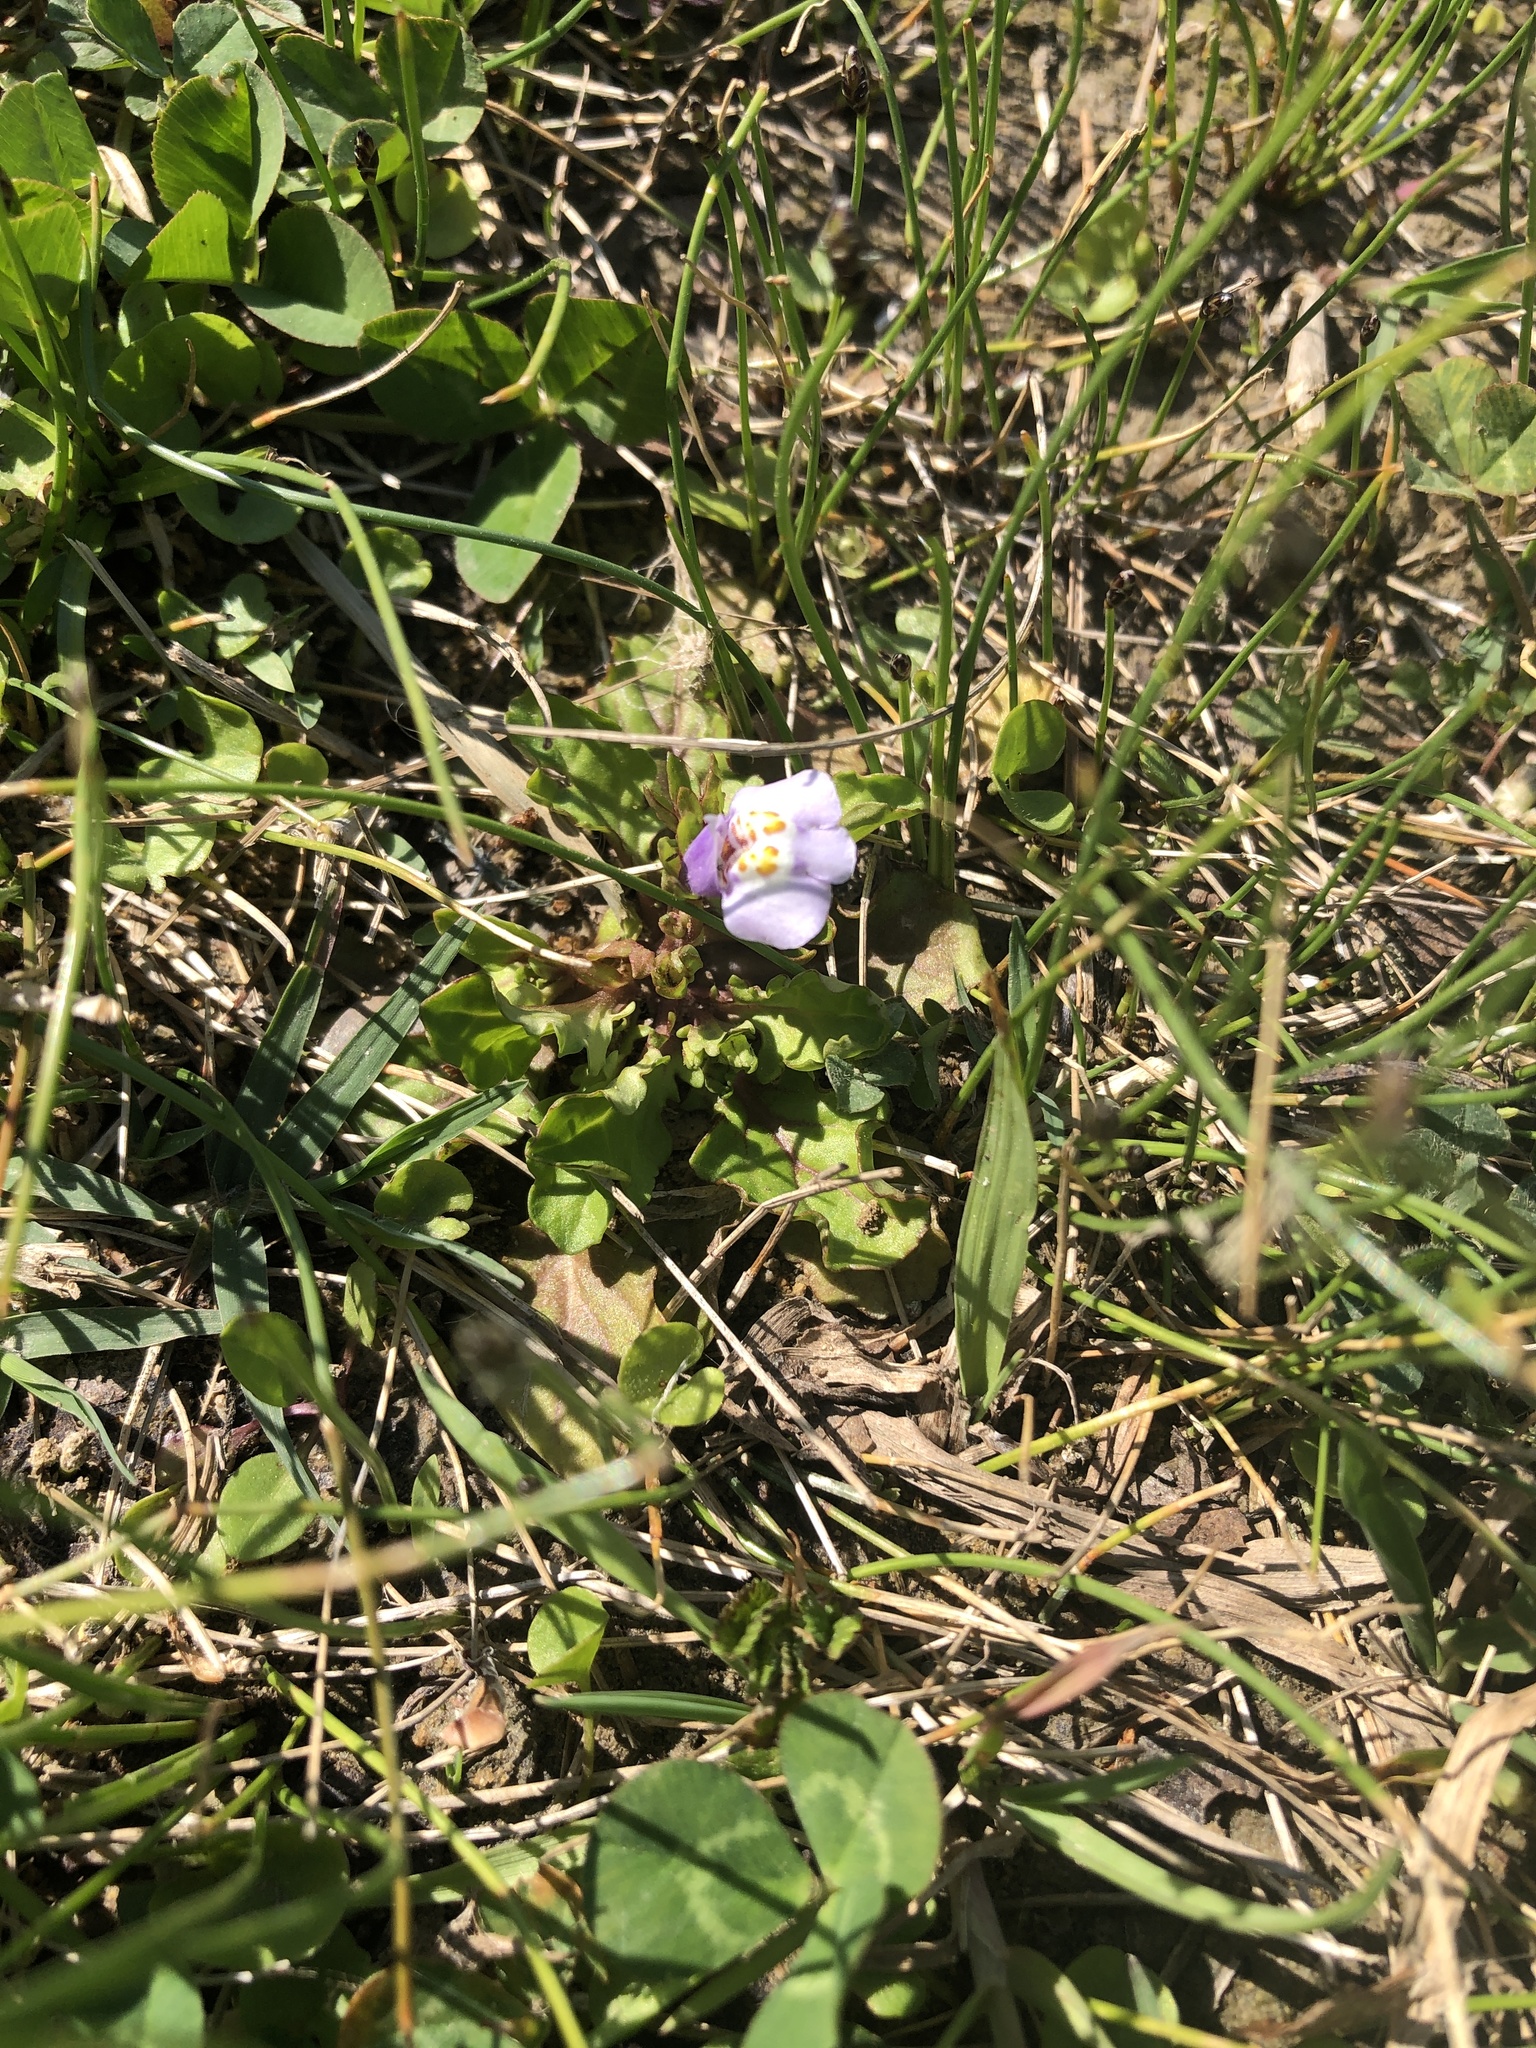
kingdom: Plantae
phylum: Tracheophyta
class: Magnoliopsida
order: Lamiales
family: Mazaceae
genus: Mazus
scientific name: Mazus pumilus
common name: Japanese mazus
